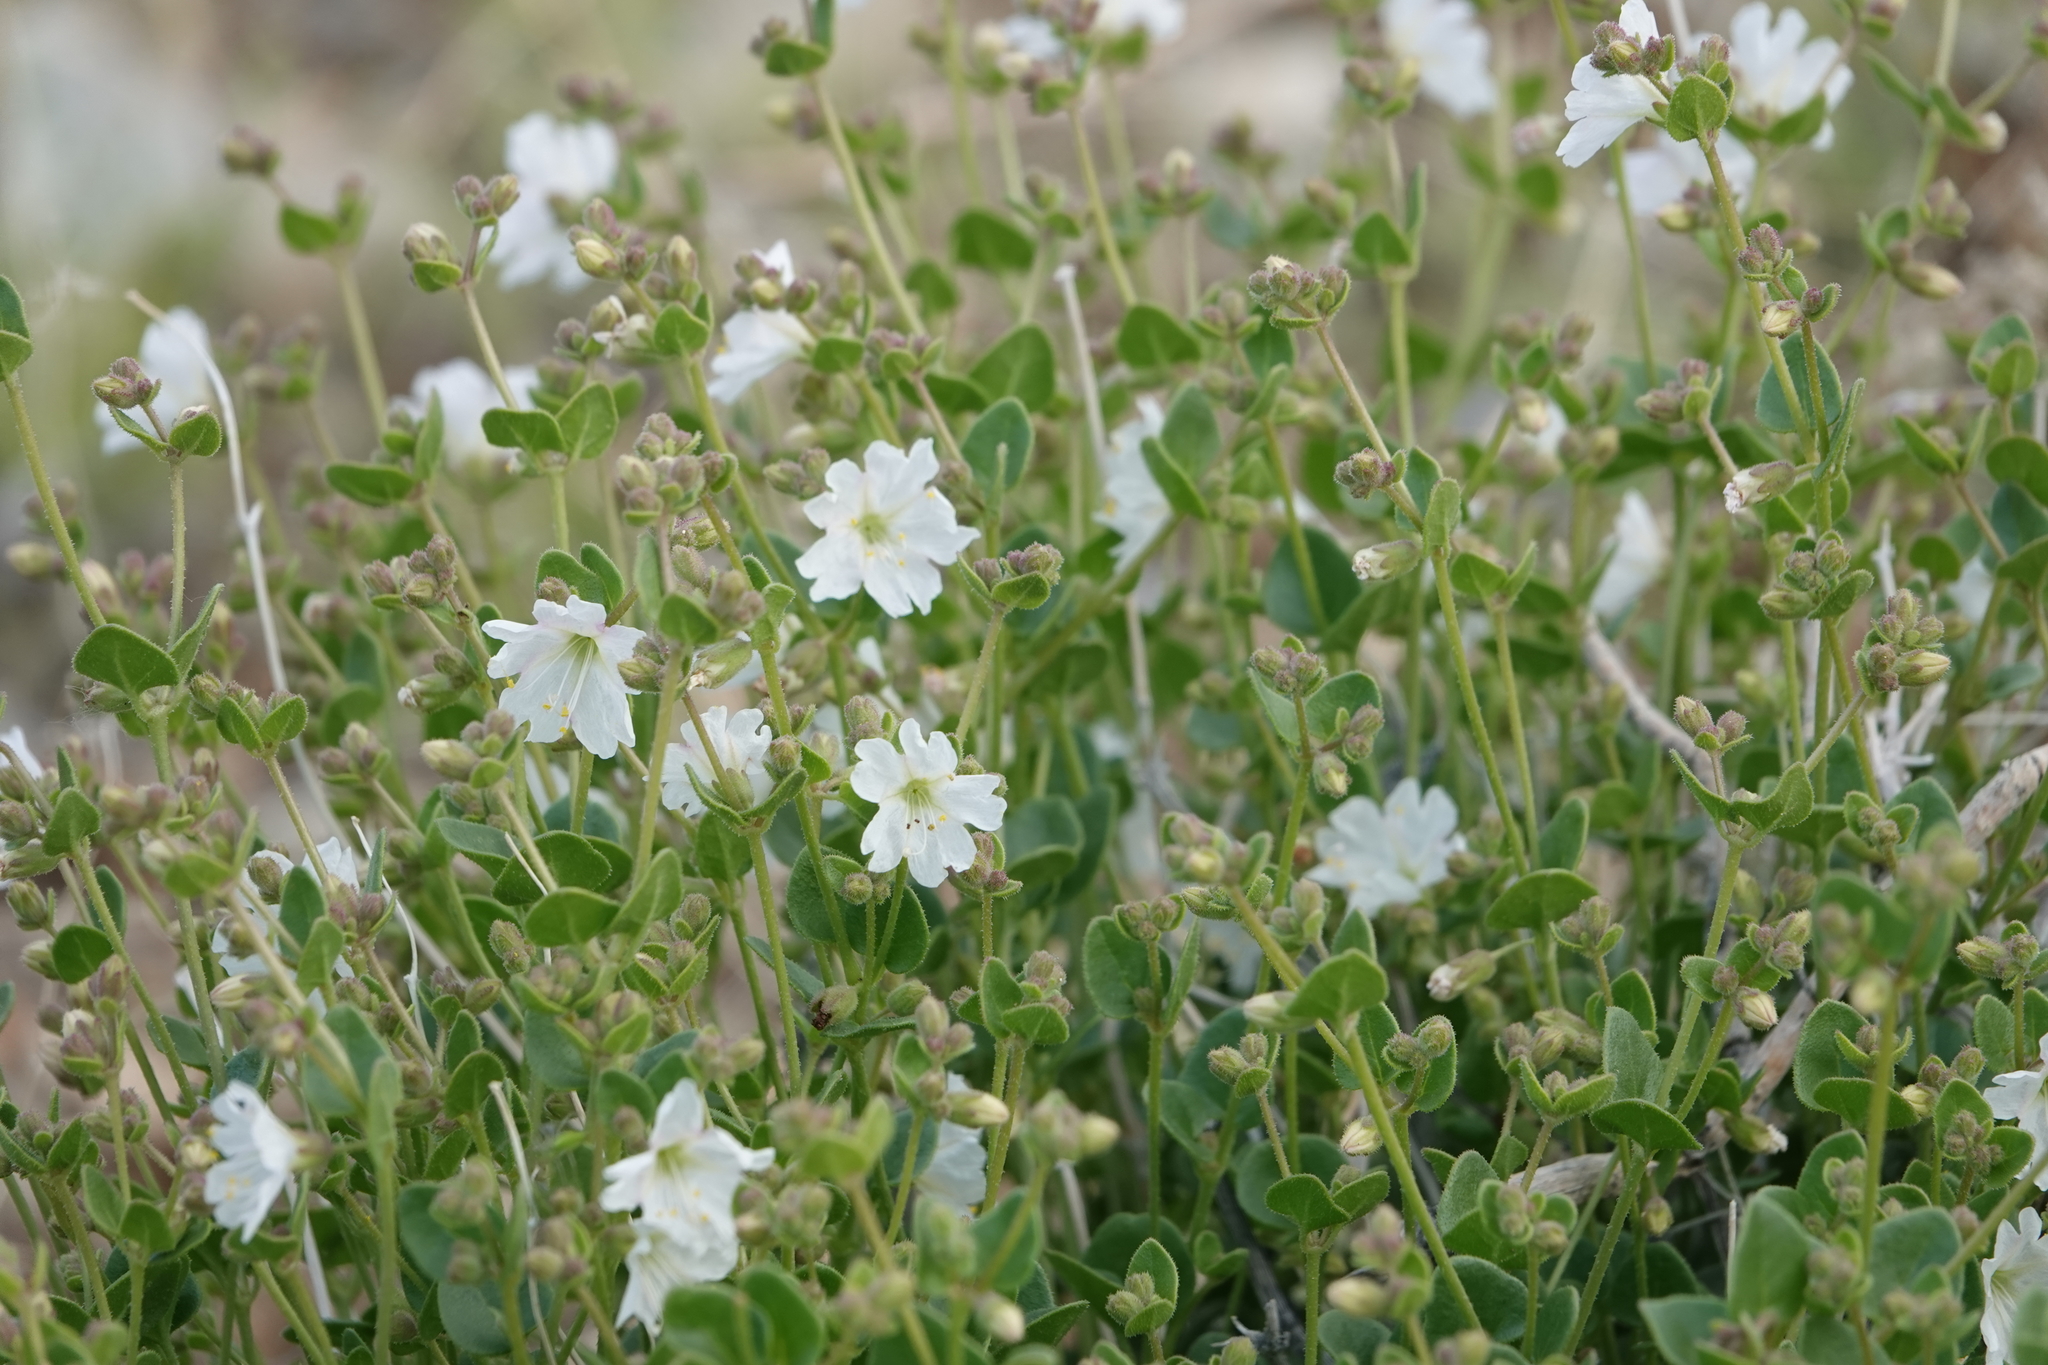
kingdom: Plantae
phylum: Tracheophyta
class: Magnoliopsida
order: Caryophyllales
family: Nyctaginaceae
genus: Mirabilis
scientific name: Mirabilis laevis
